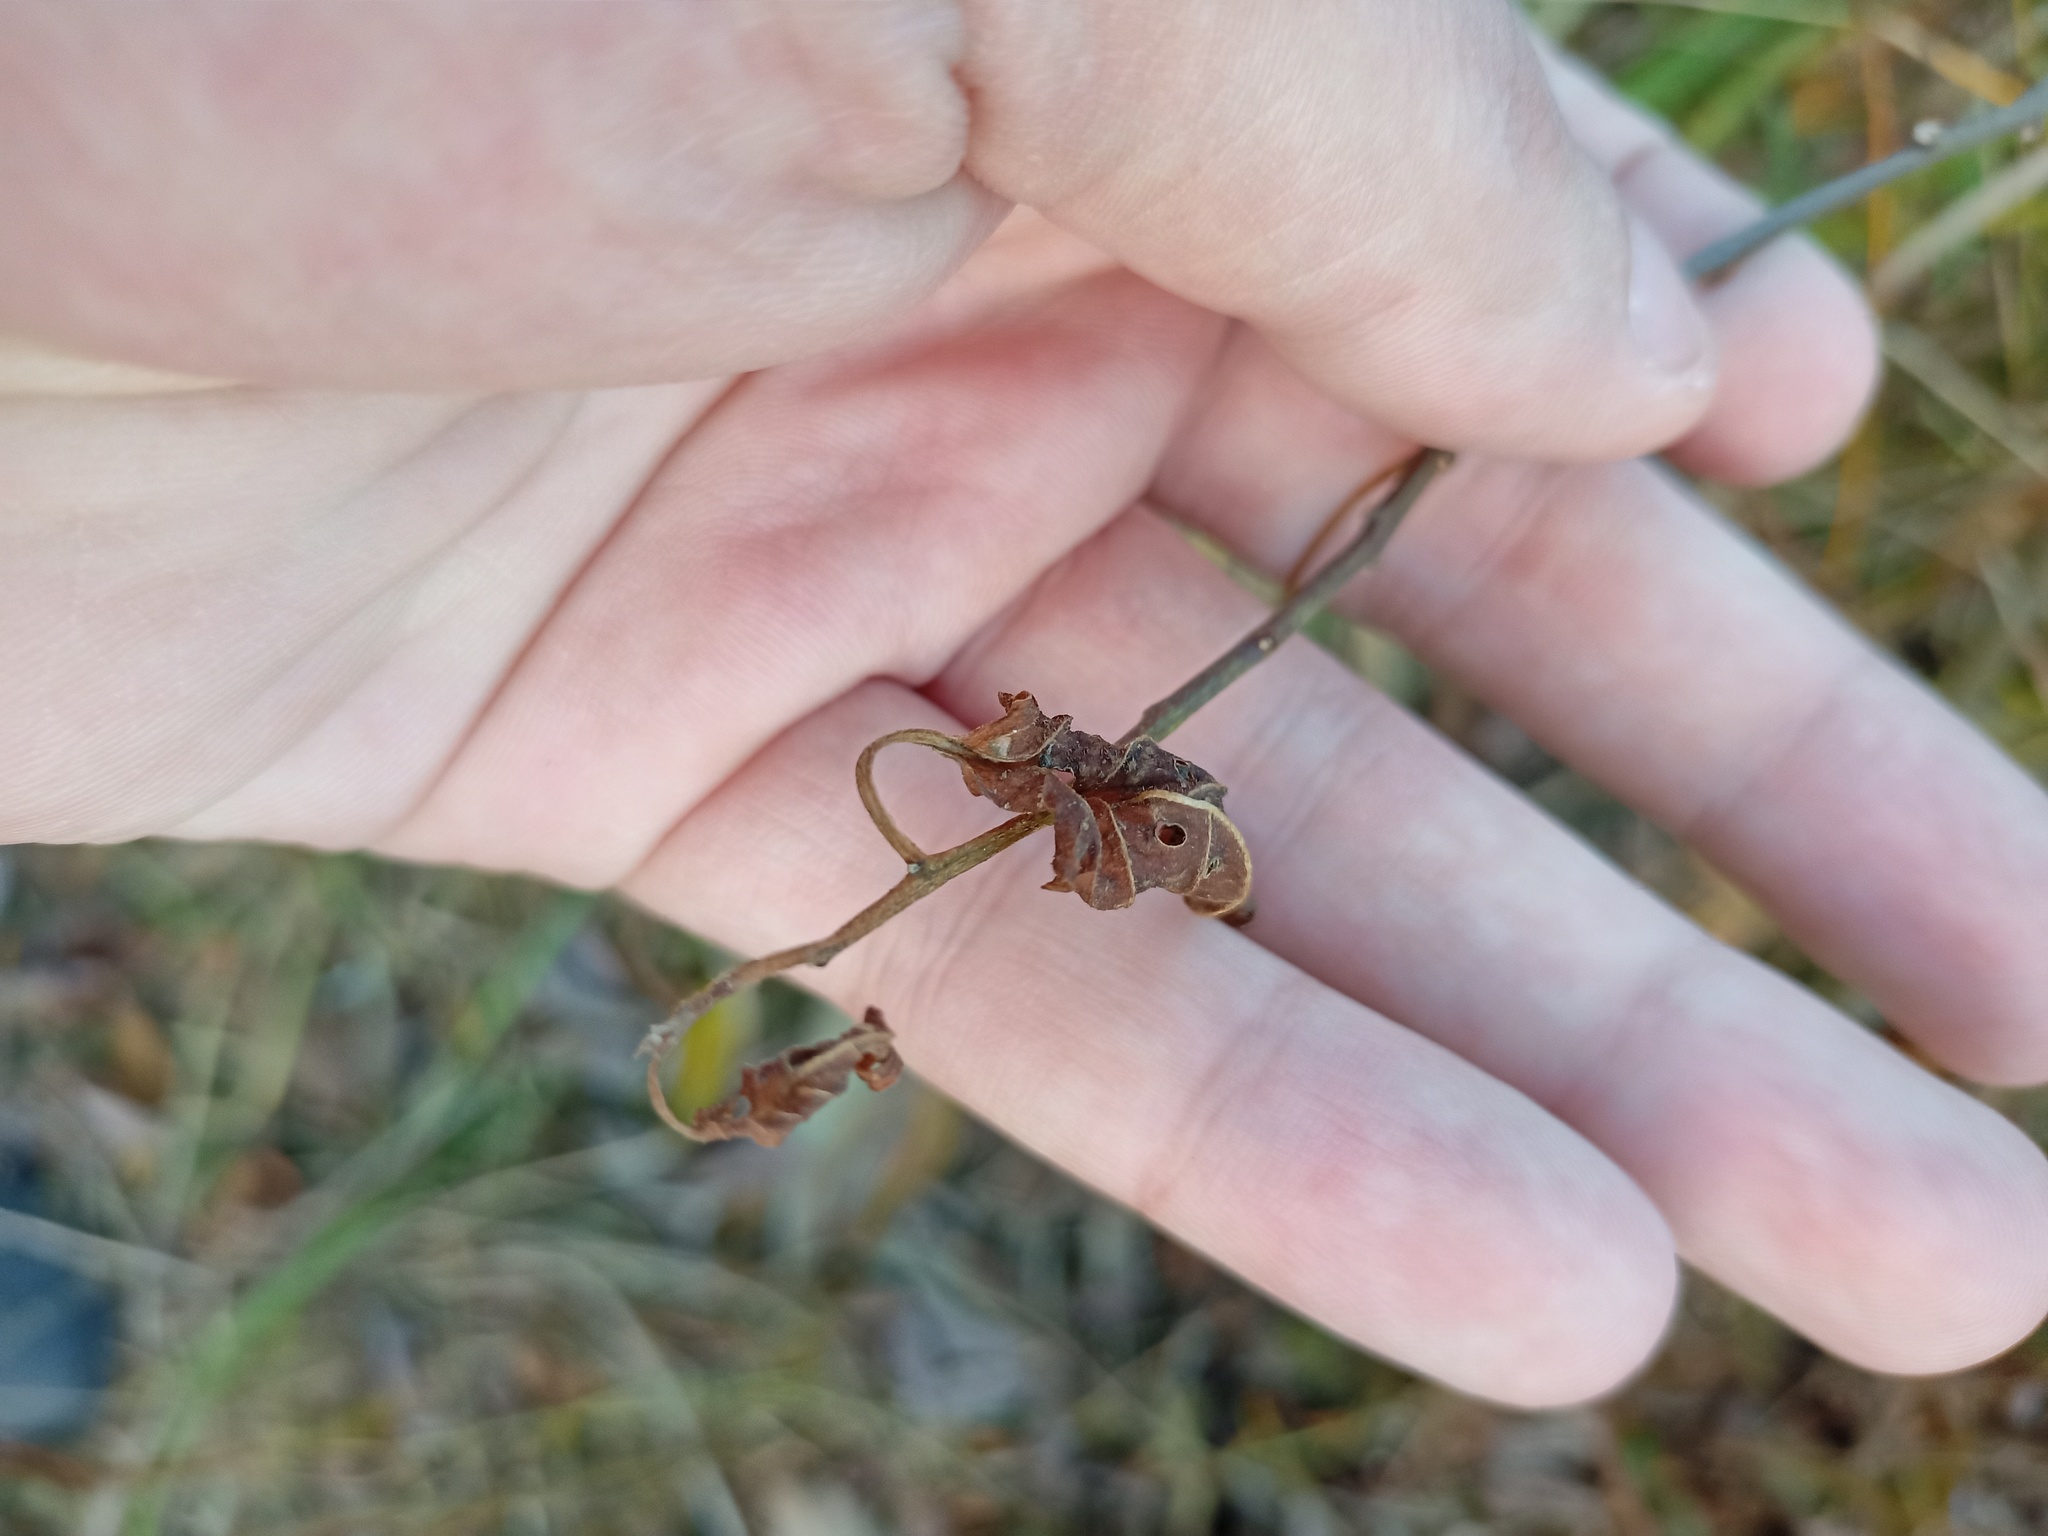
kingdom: Plantae
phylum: Tracheophyta
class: Magnoliopsida
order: Solanales
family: Solanaceae
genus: Solanum
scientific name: Solanum dulcamara
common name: Climbing nightshade
